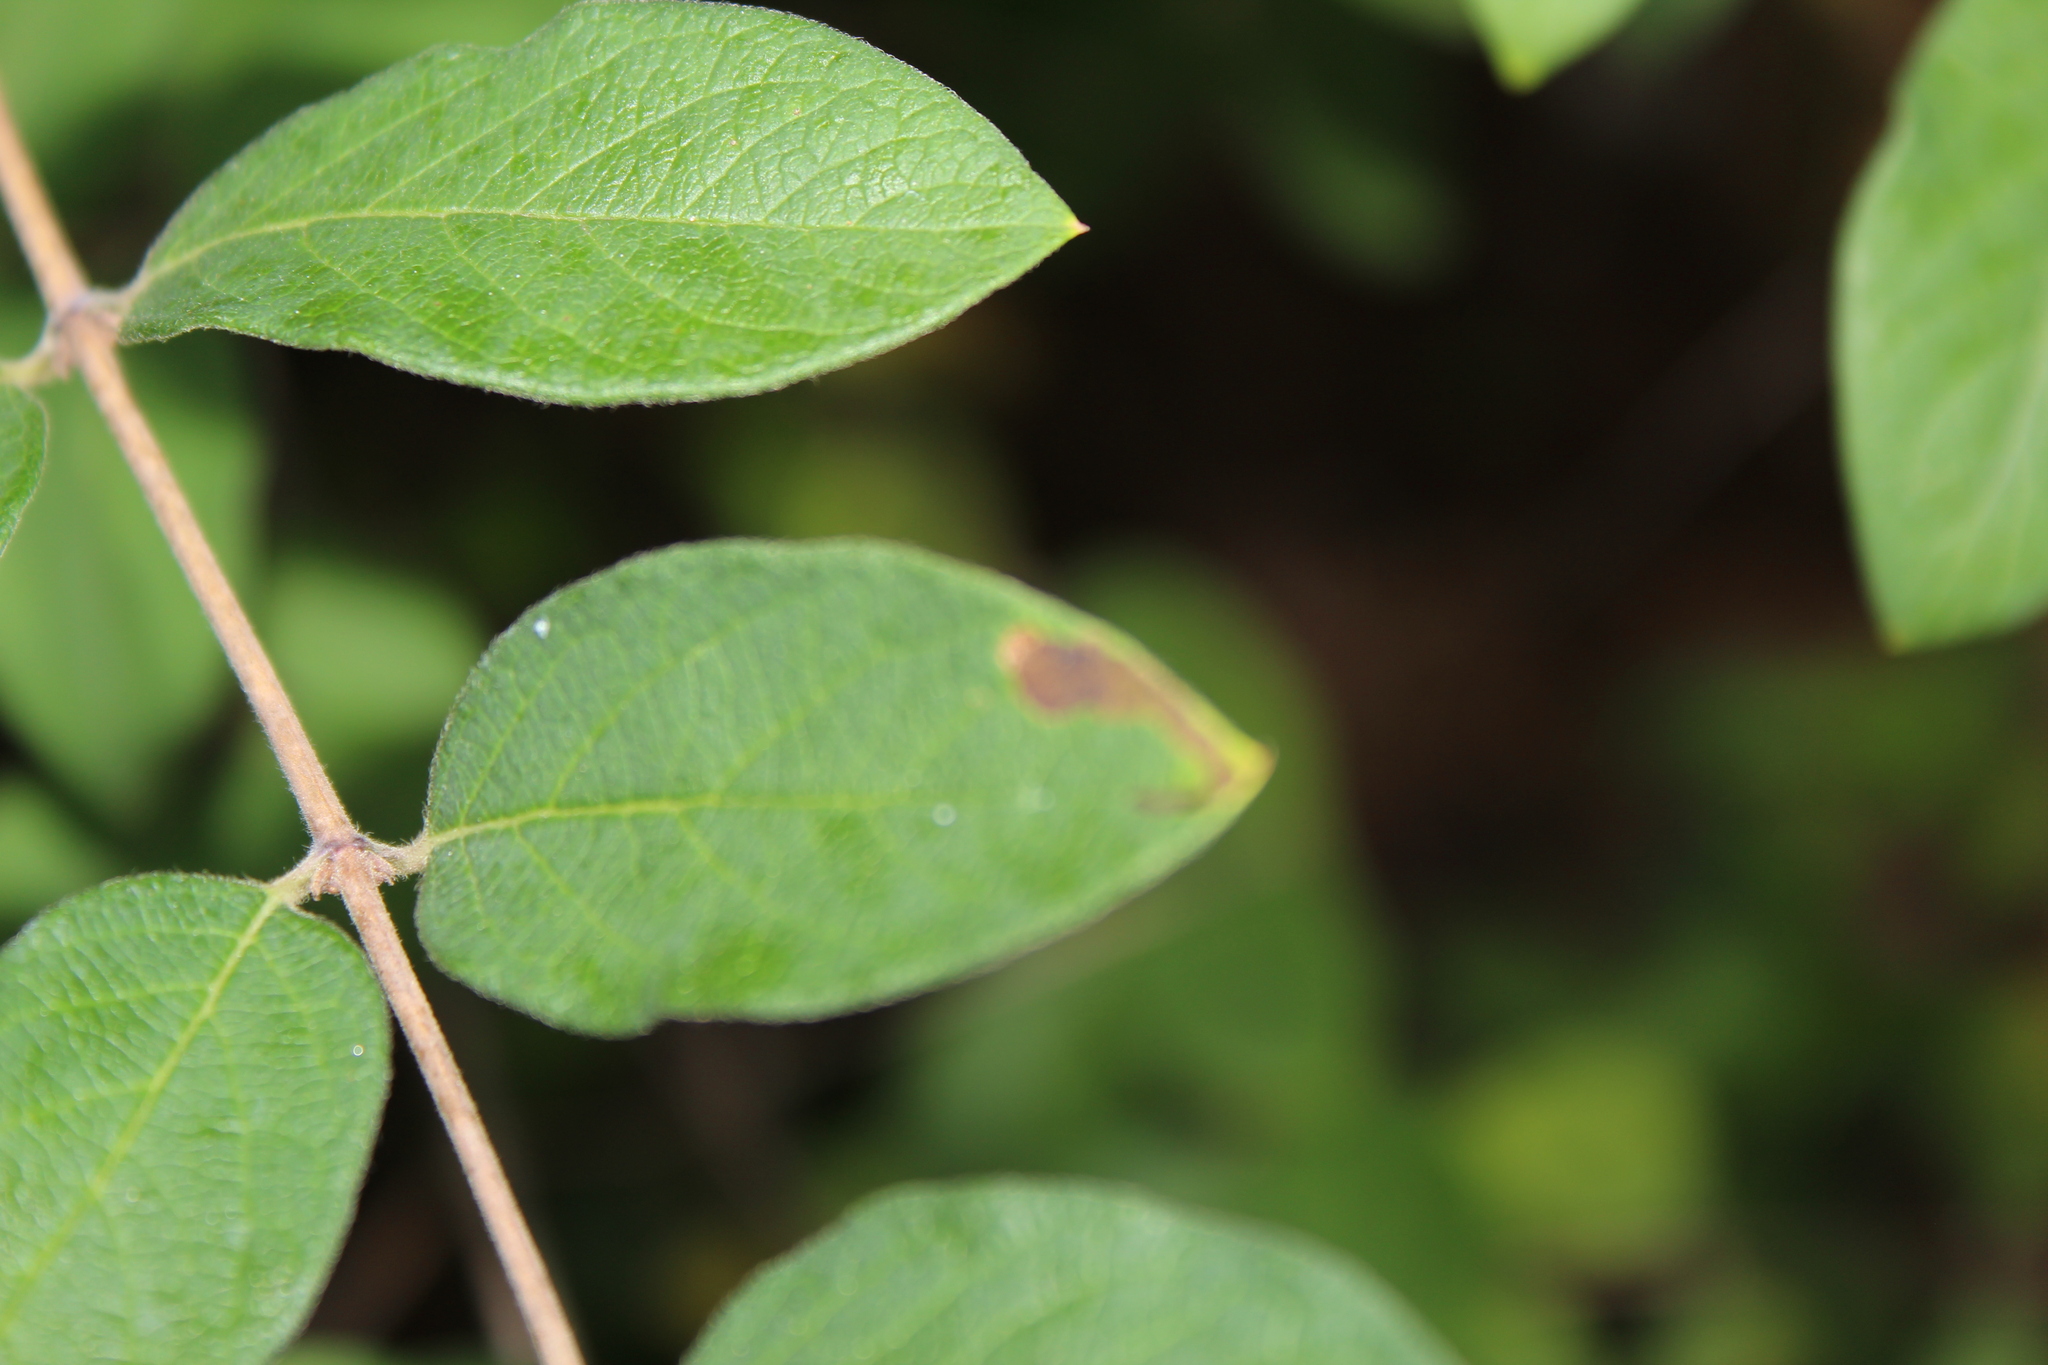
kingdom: Animalia
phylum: Arthropoda
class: Insecta
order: Diptera
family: Agromyzidae
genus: Aulagromyza
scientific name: Aulagromyza
